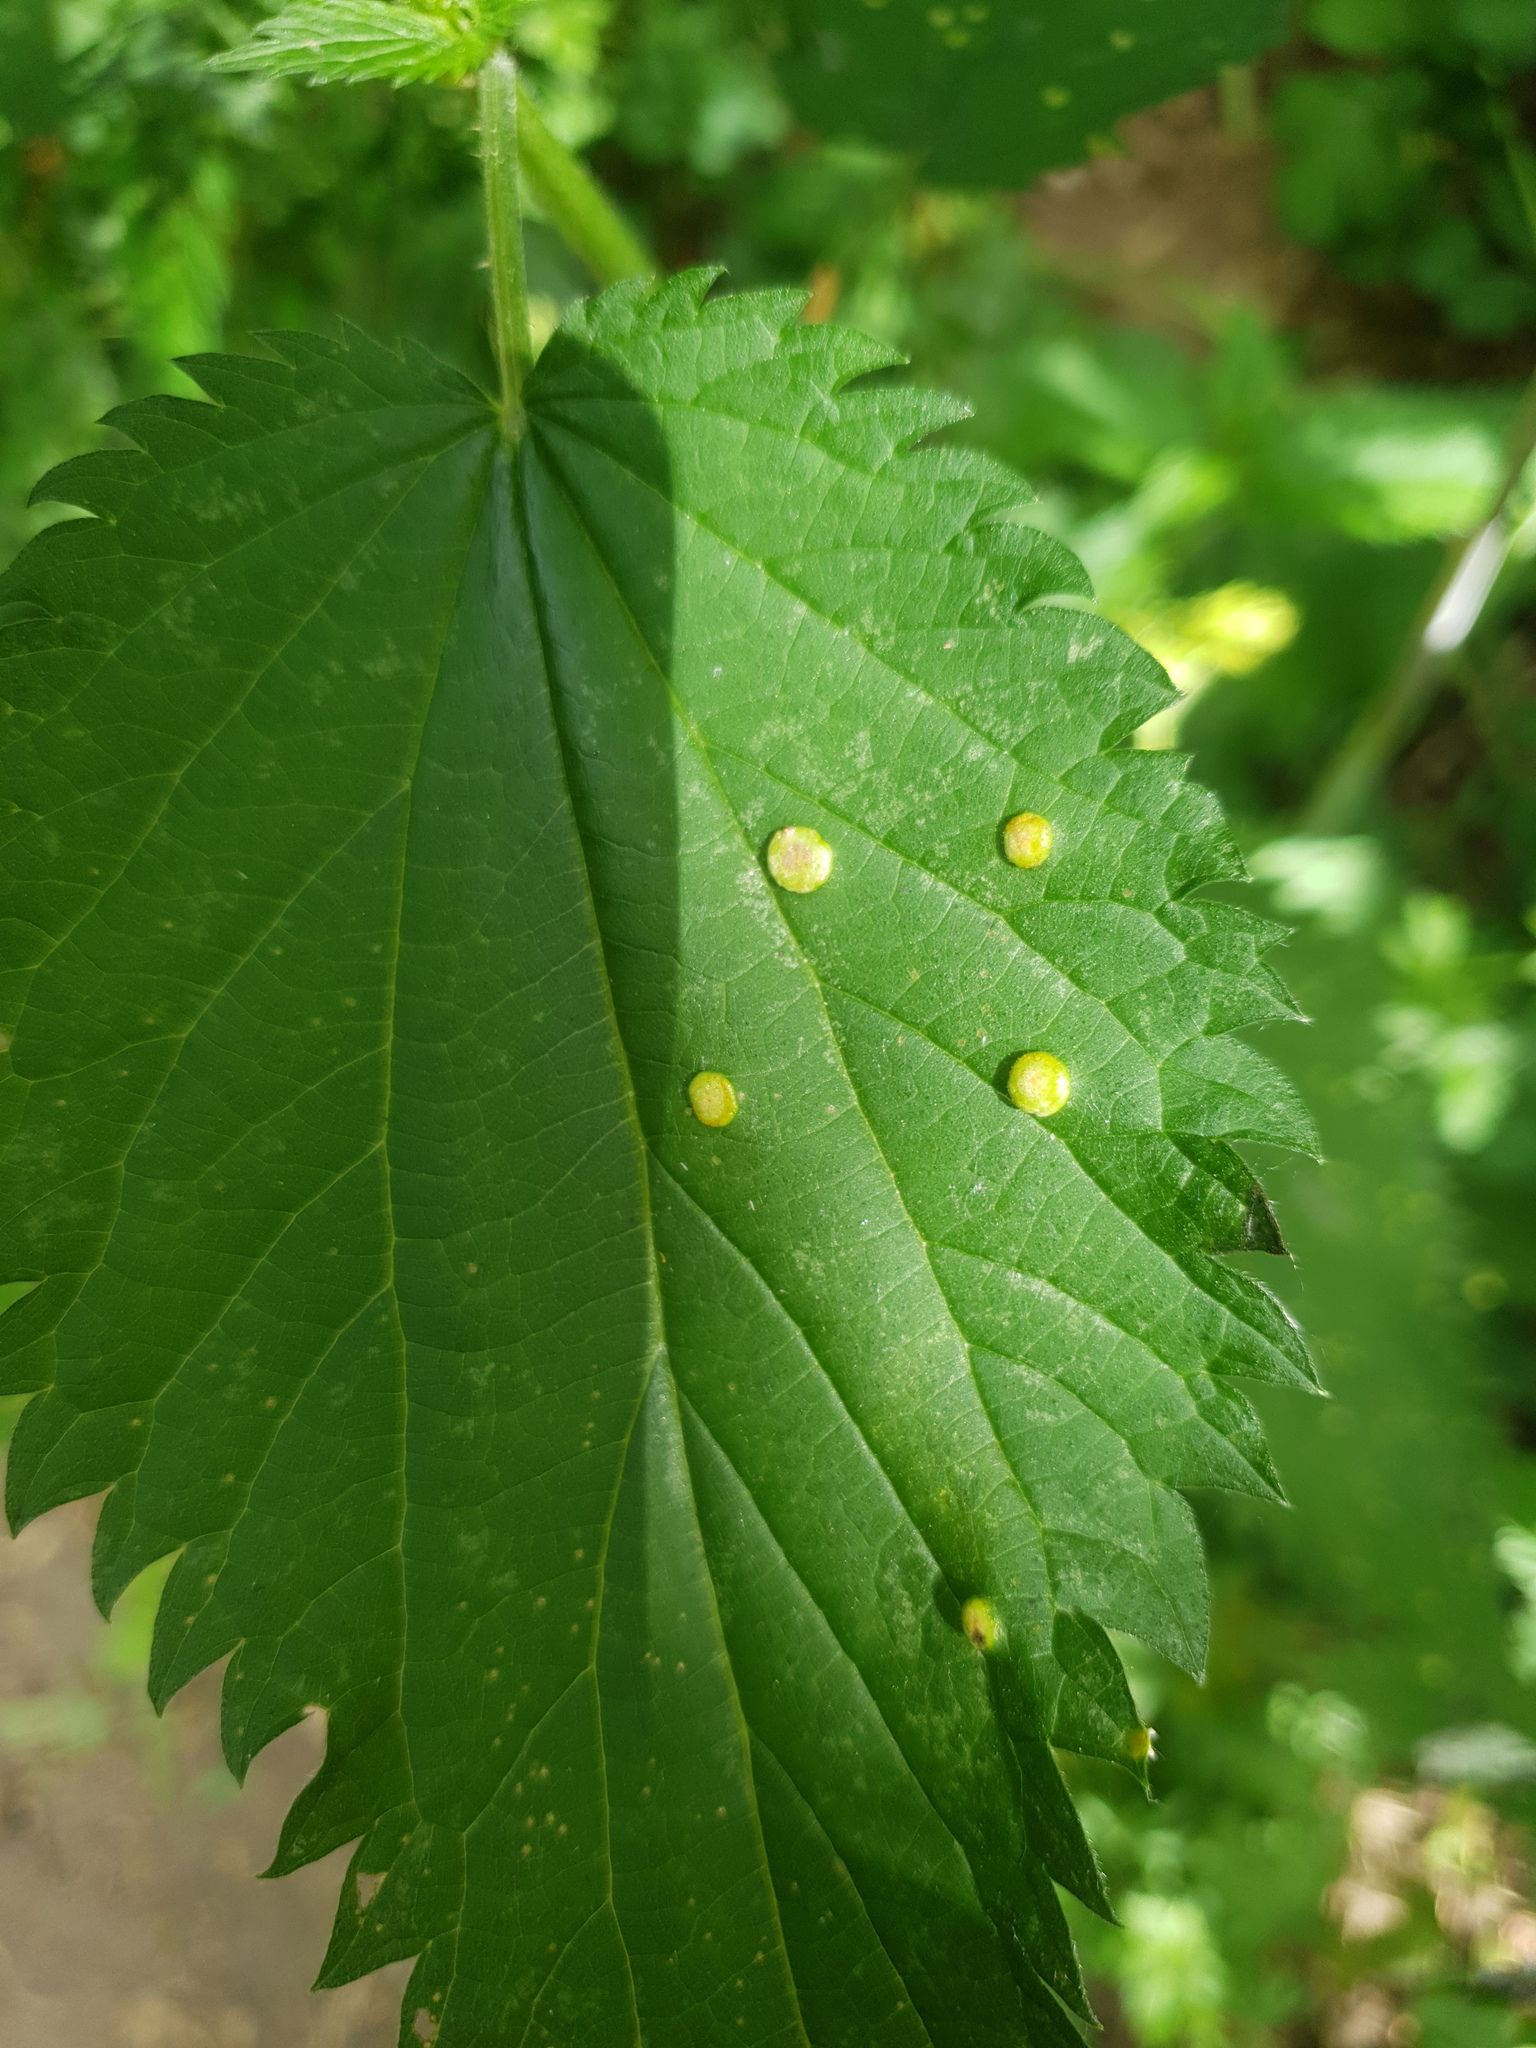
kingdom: Fungi
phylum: Basidiomycota
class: Pucciniomycetes
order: Pucciniales
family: Pucciniaceae
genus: Puccinia
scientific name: Puccinia urticata
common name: Nettle clustercup rust fungus
